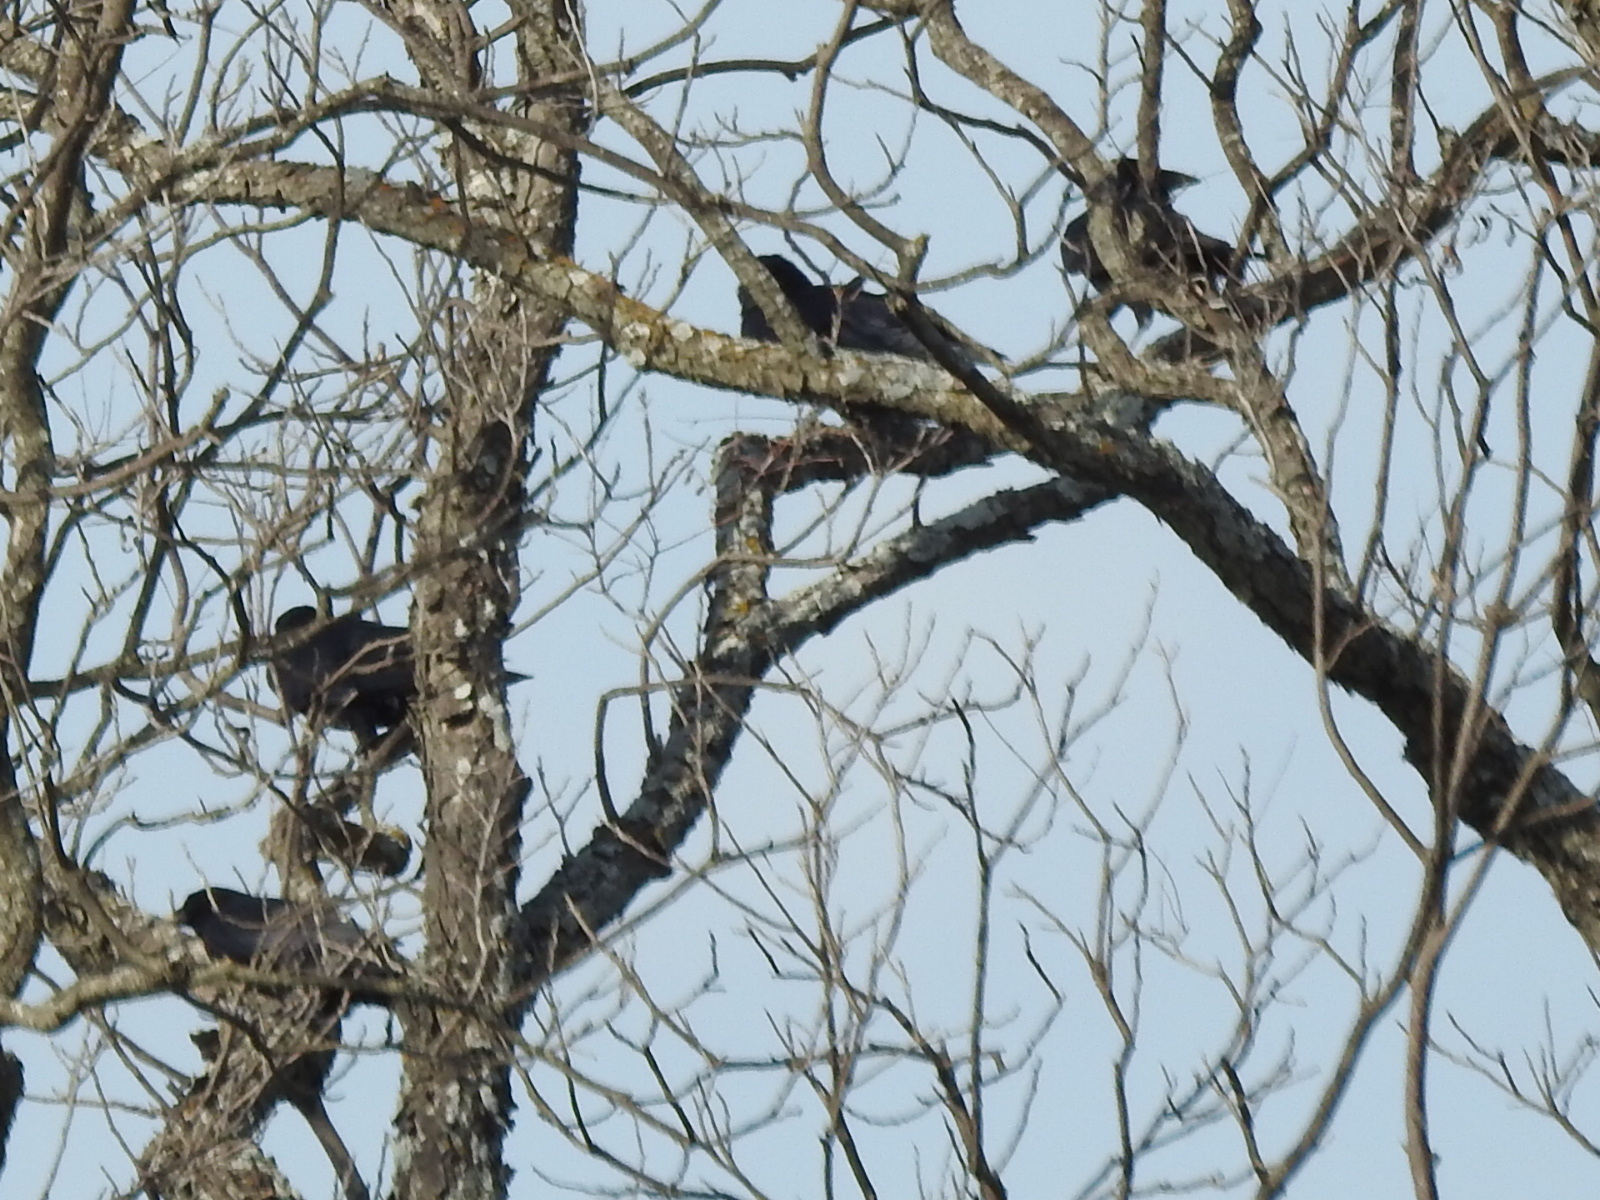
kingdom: Animalia
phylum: Chordata
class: Aves
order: Passeriformes
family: Corvidae
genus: Corvus
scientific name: Corvus brachyrhynchos
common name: American crow
